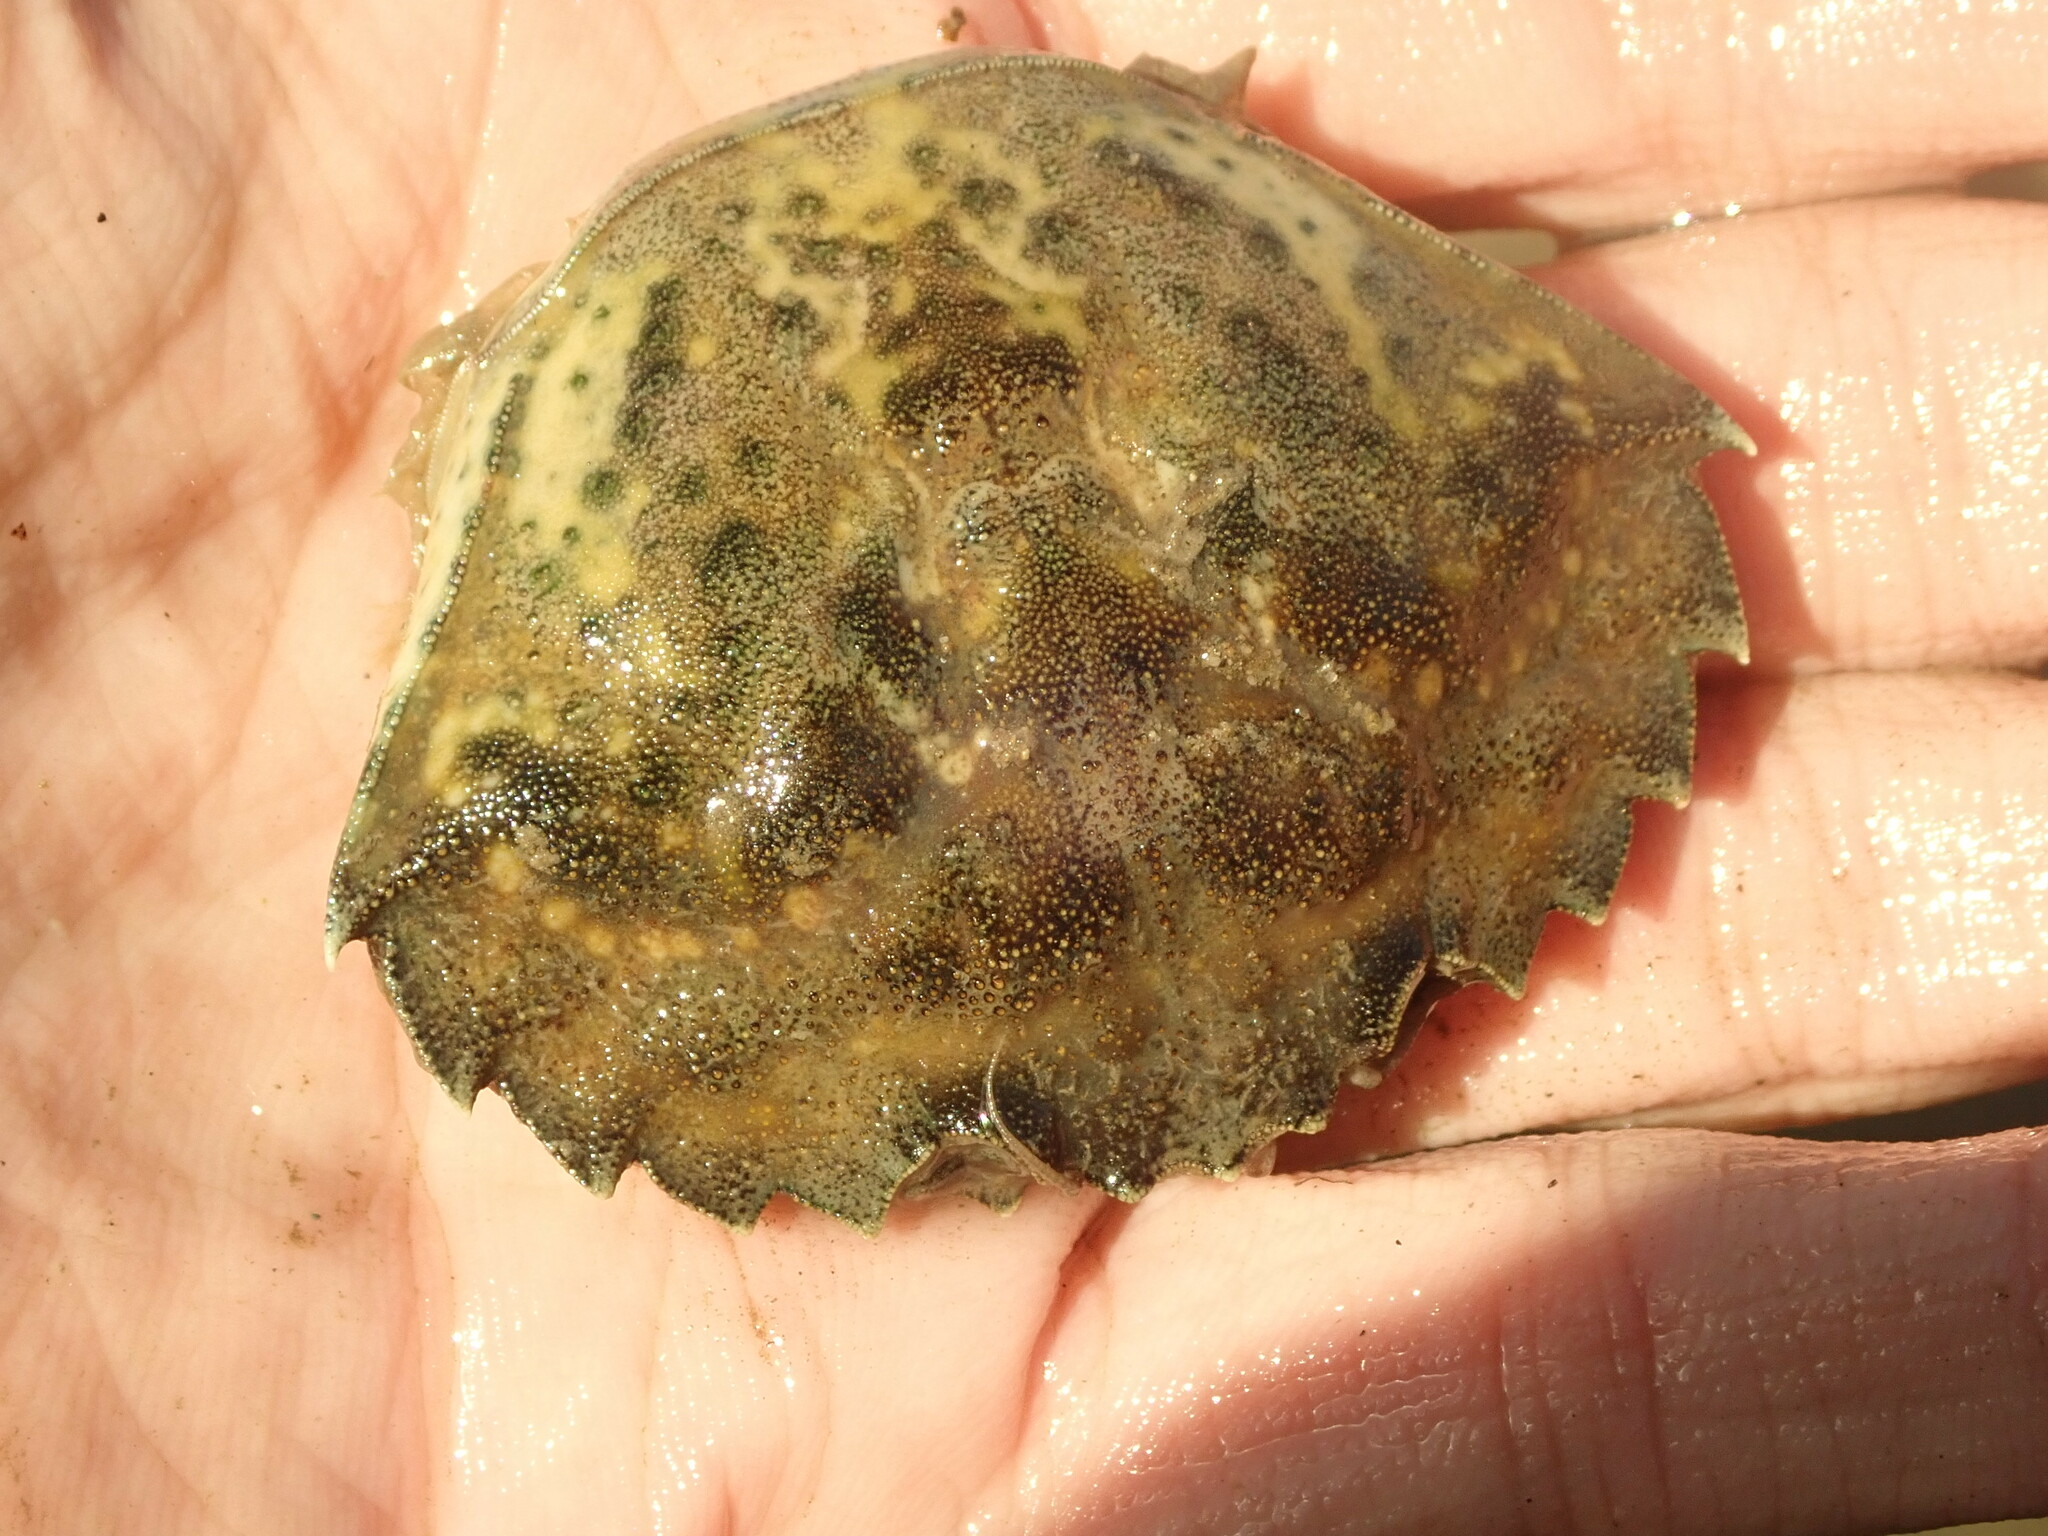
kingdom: Animalia
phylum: Arthropoda
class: Malacostraca
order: Decapoda
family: Carcinidae
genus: Carcinus
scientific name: Carcinus maenas
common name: European green crab
